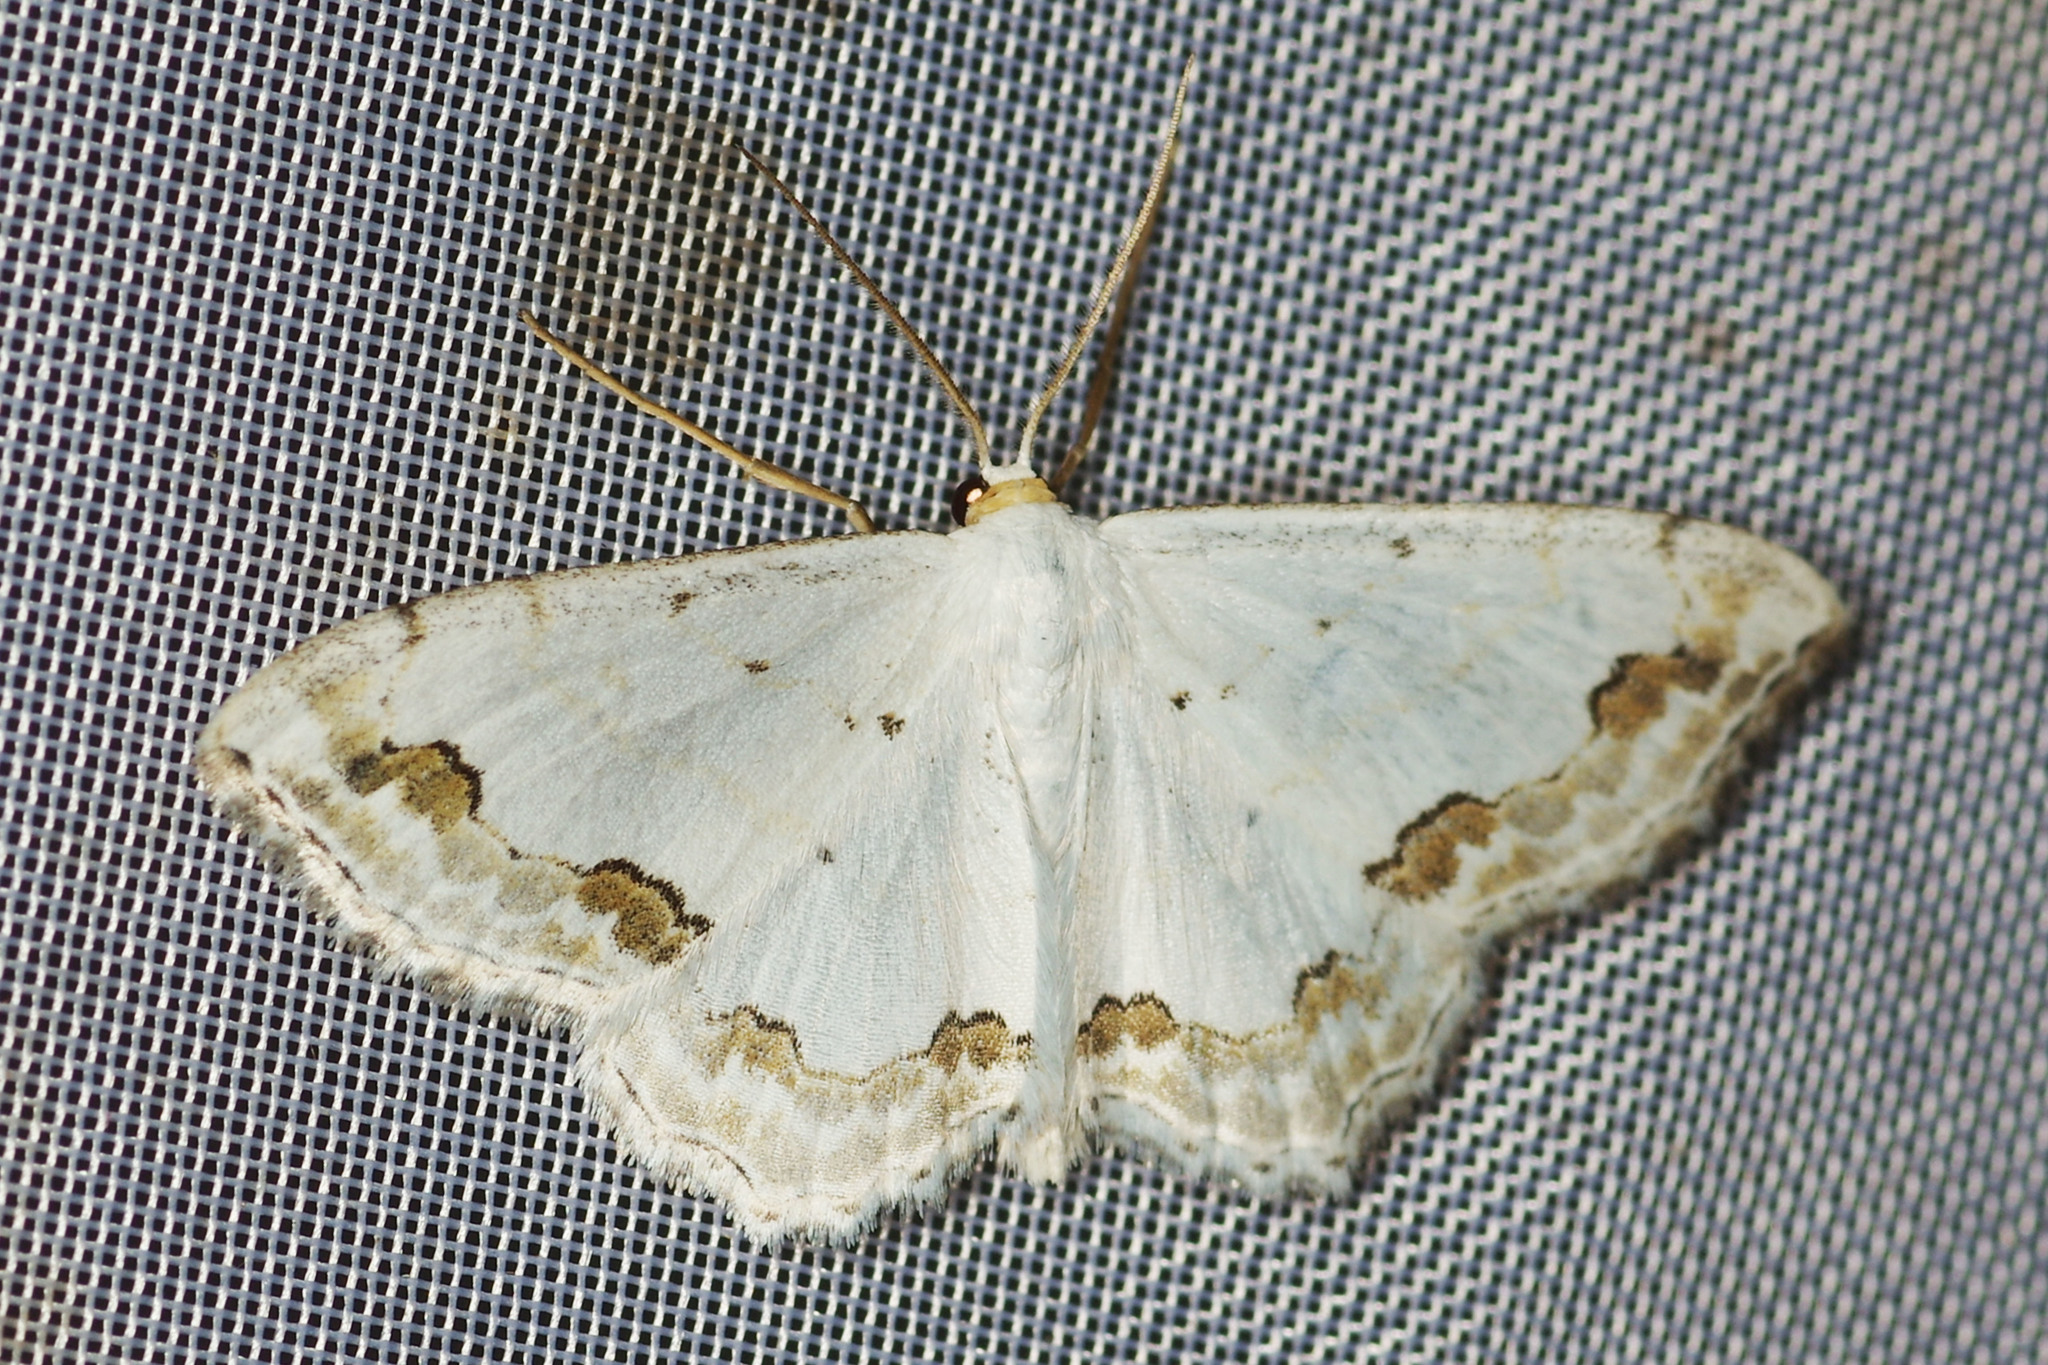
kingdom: Animalia
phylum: Arthropoda
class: Insecta
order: Lepidoptera
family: Geometridae
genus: Scopula
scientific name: Scopula ornata
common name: Lace border
